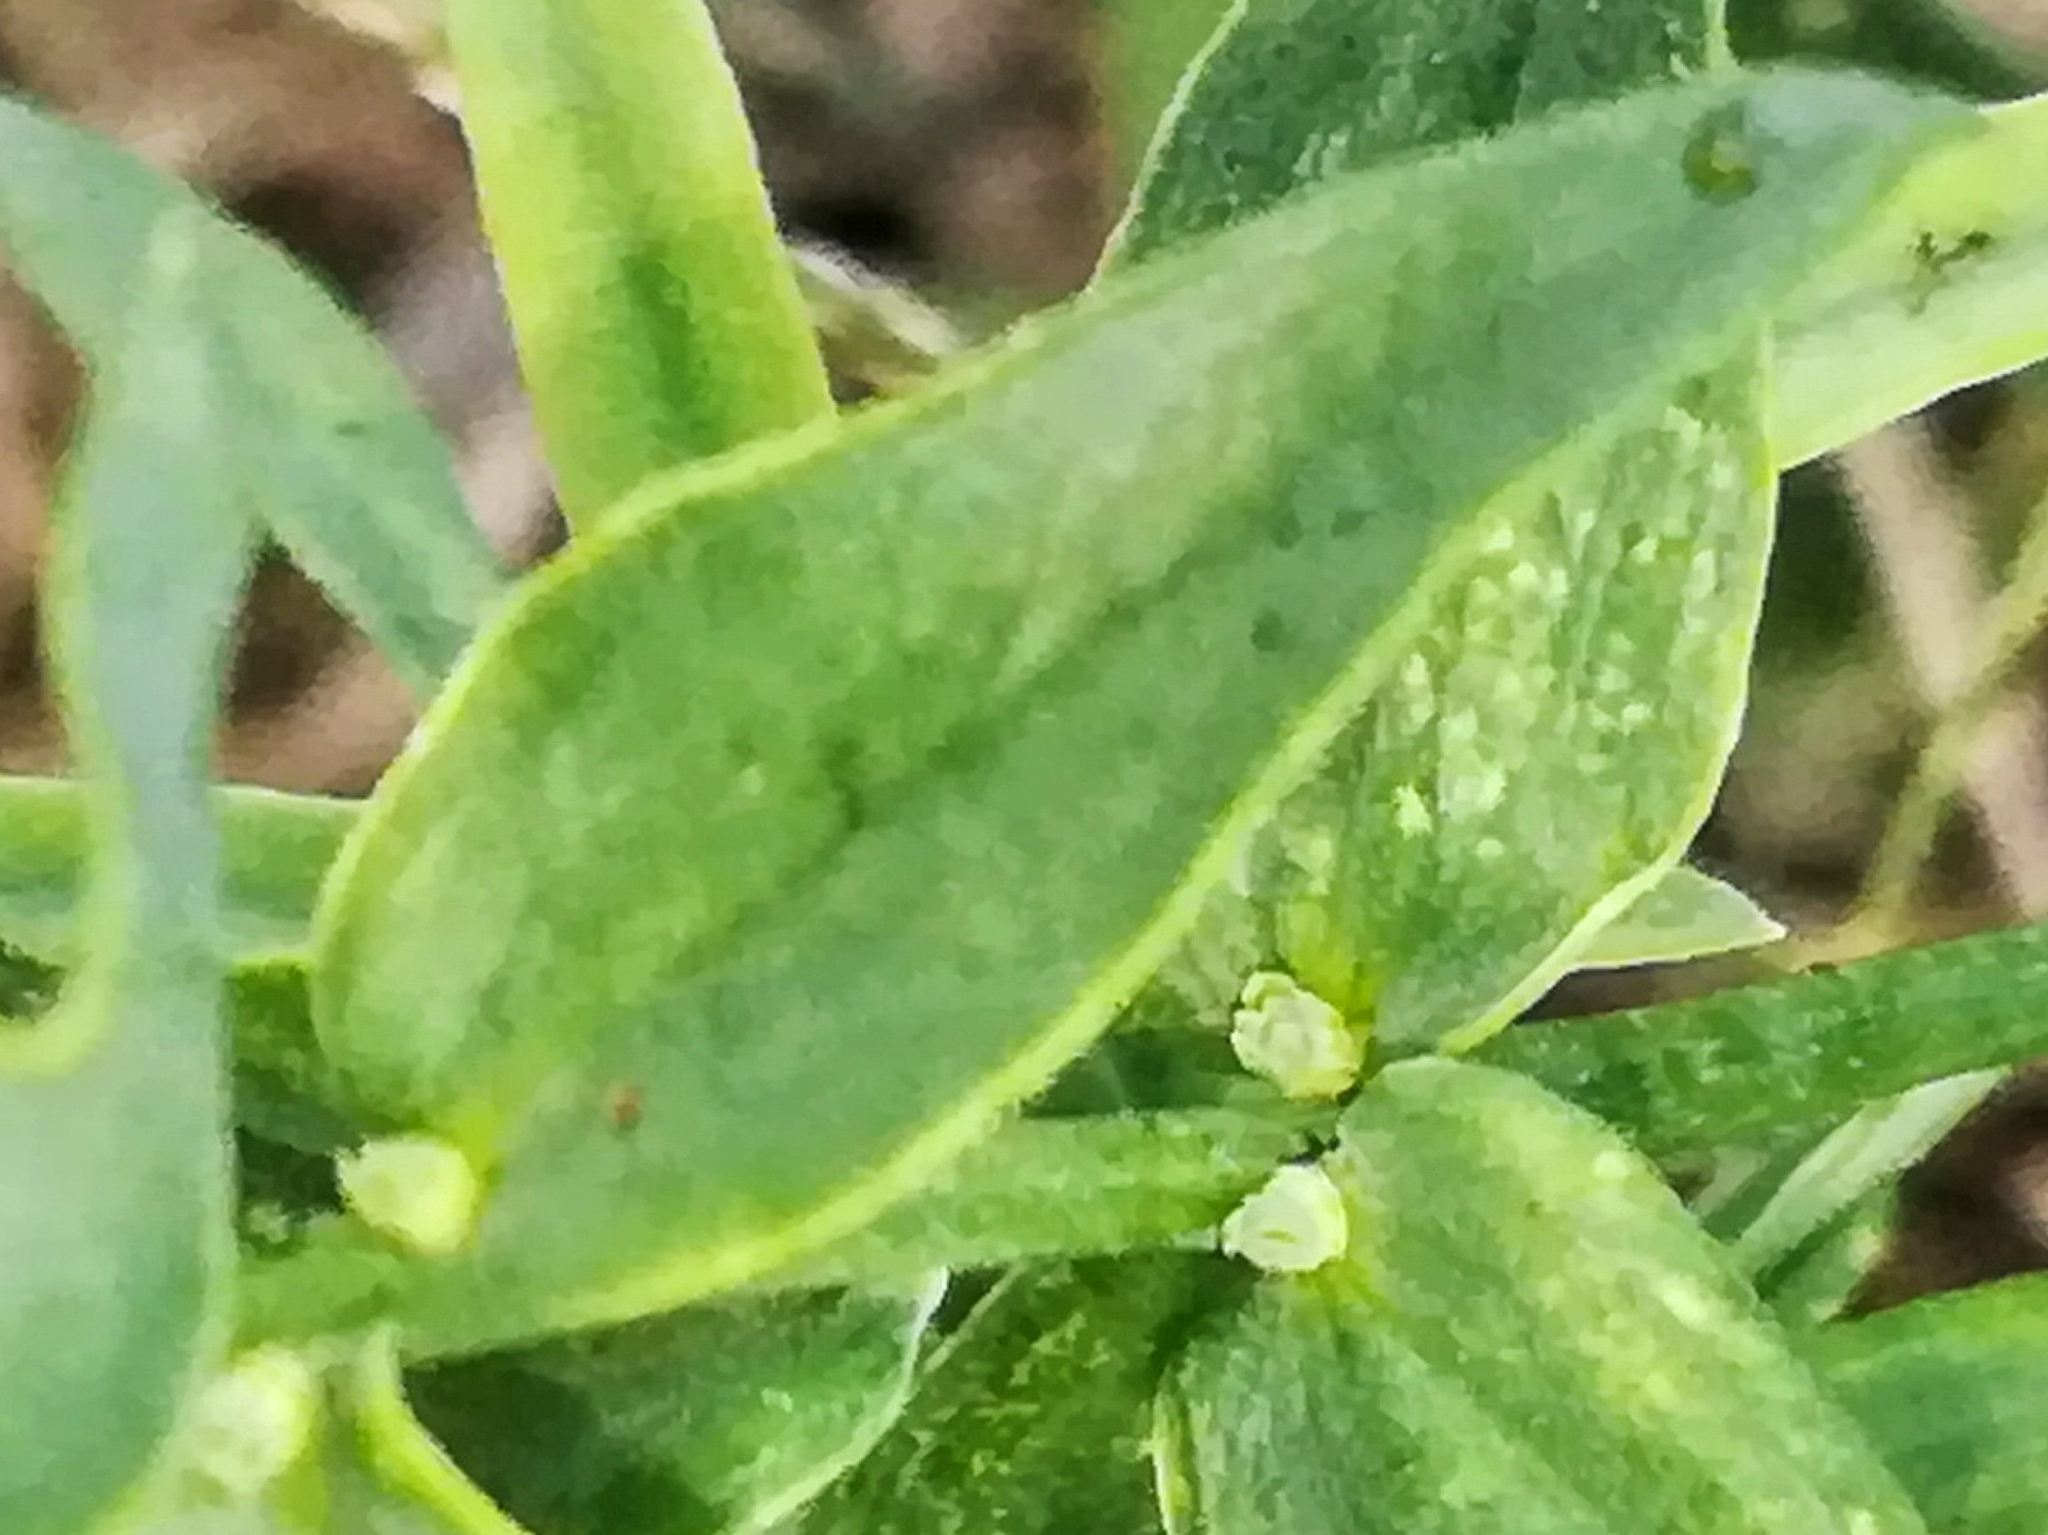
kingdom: Plantae
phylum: Tracheophyta
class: Magnoliopsida
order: Lamiales
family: Plantaginaceae
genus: Linaria
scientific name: Linaria vulgaris
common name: Butter and eggs
